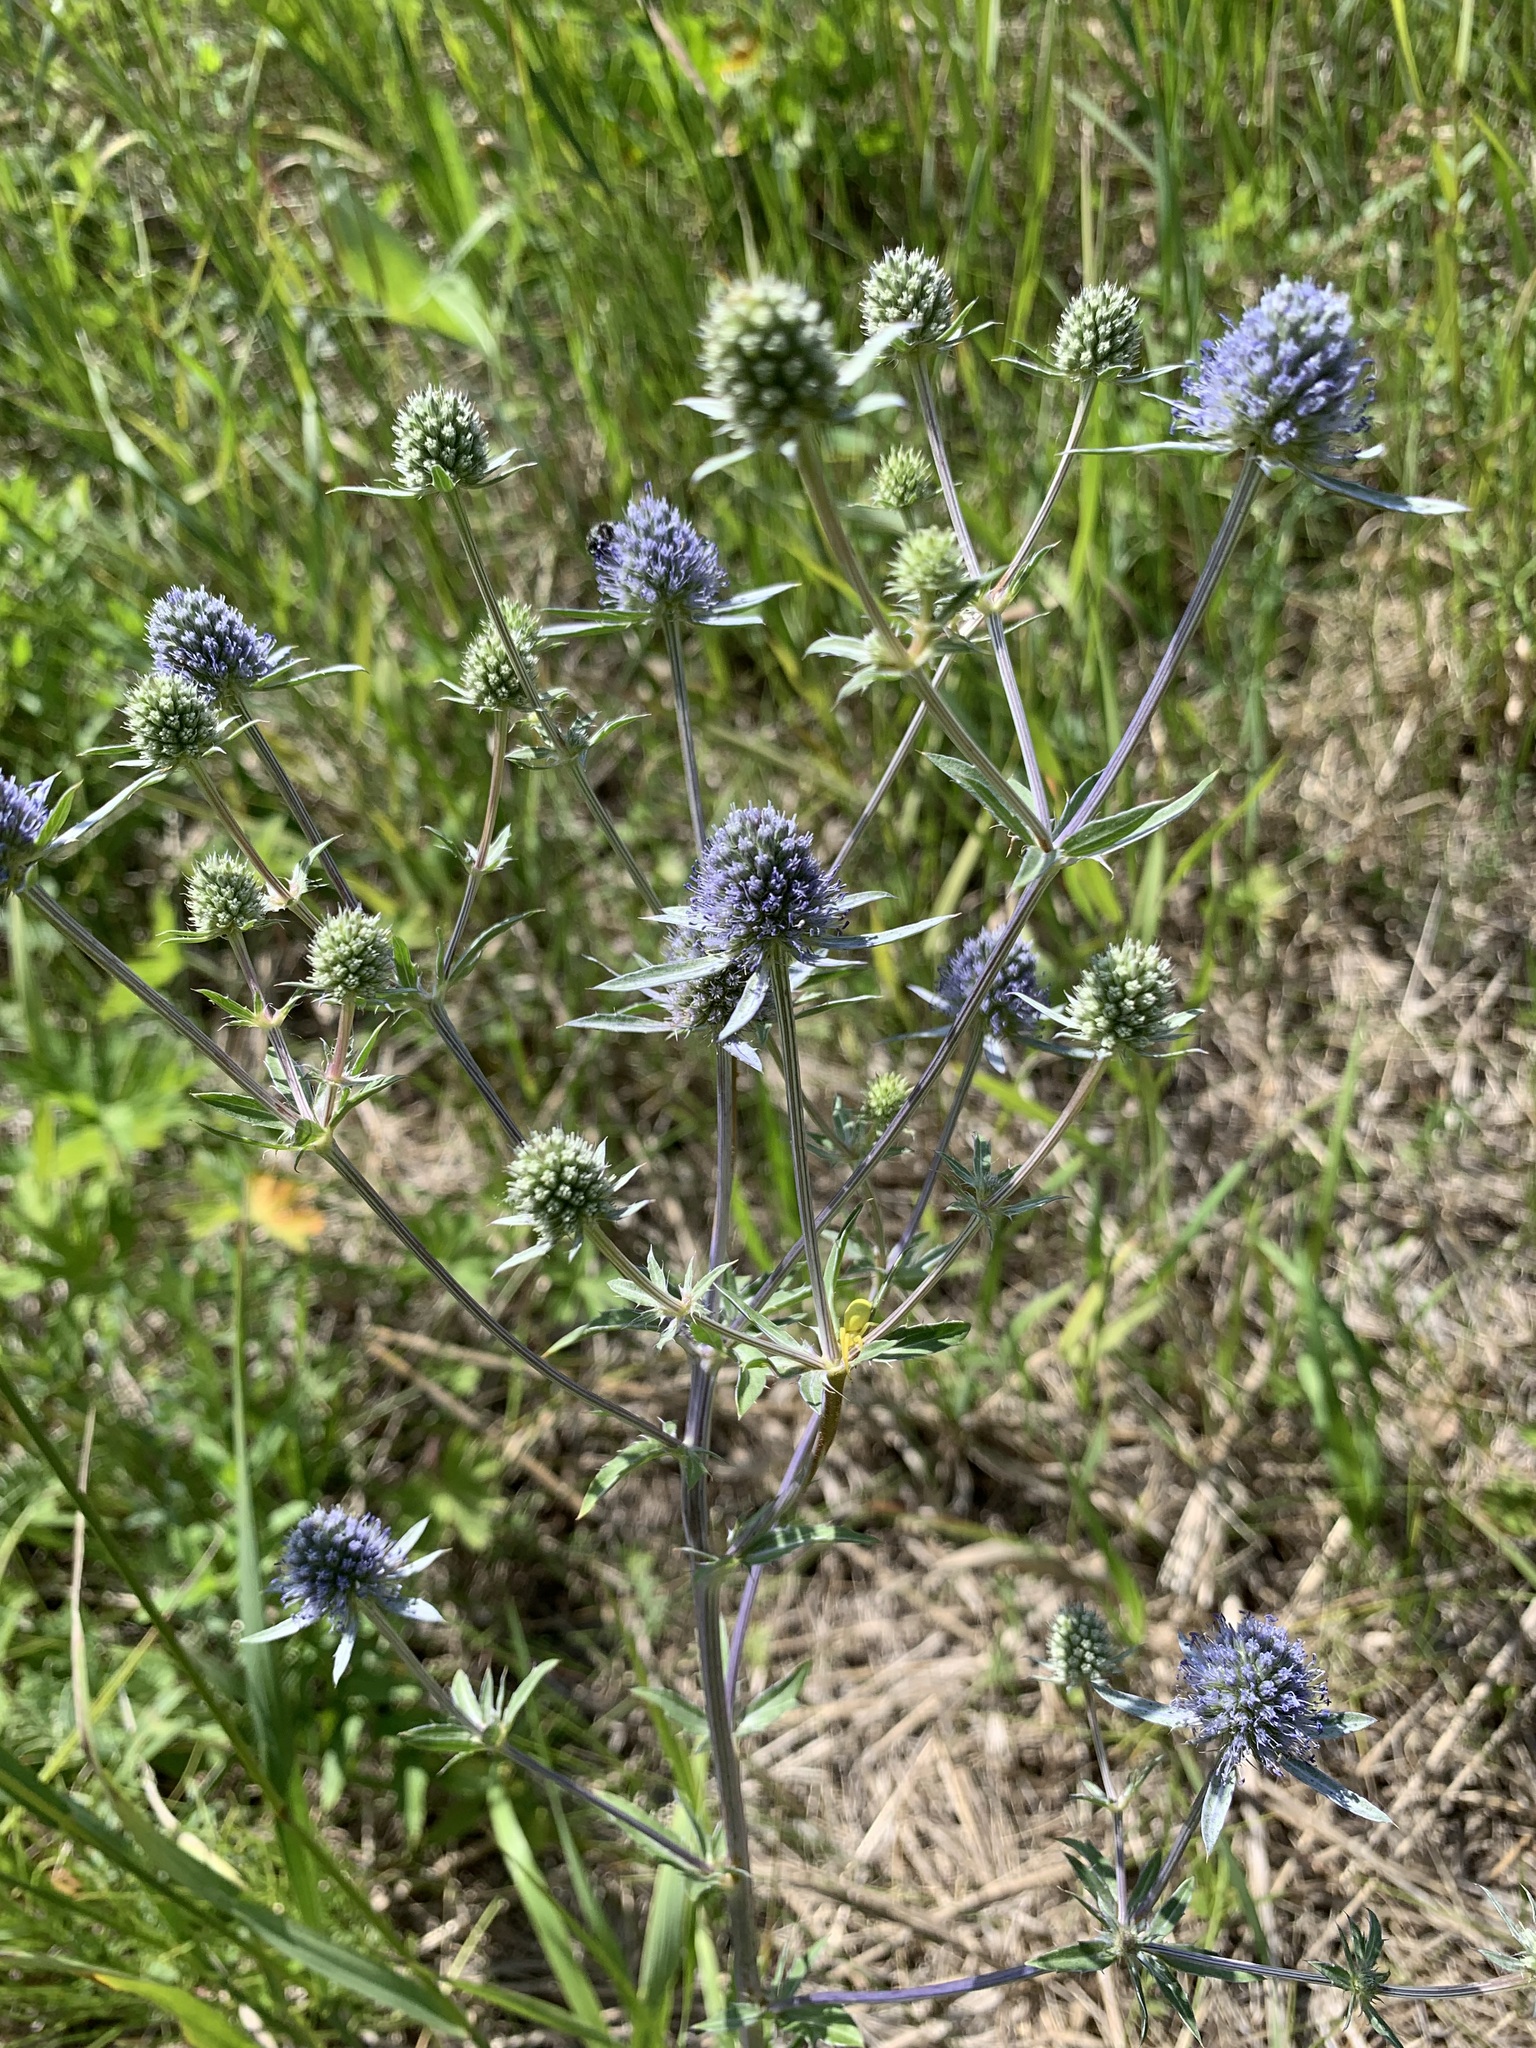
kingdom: Plantae
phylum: Tracheophyta
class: Magnoliopsida
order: Apiales
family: Apiaceae
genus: Eryngium
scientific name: Eryngium planum
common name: Blue eryngo
